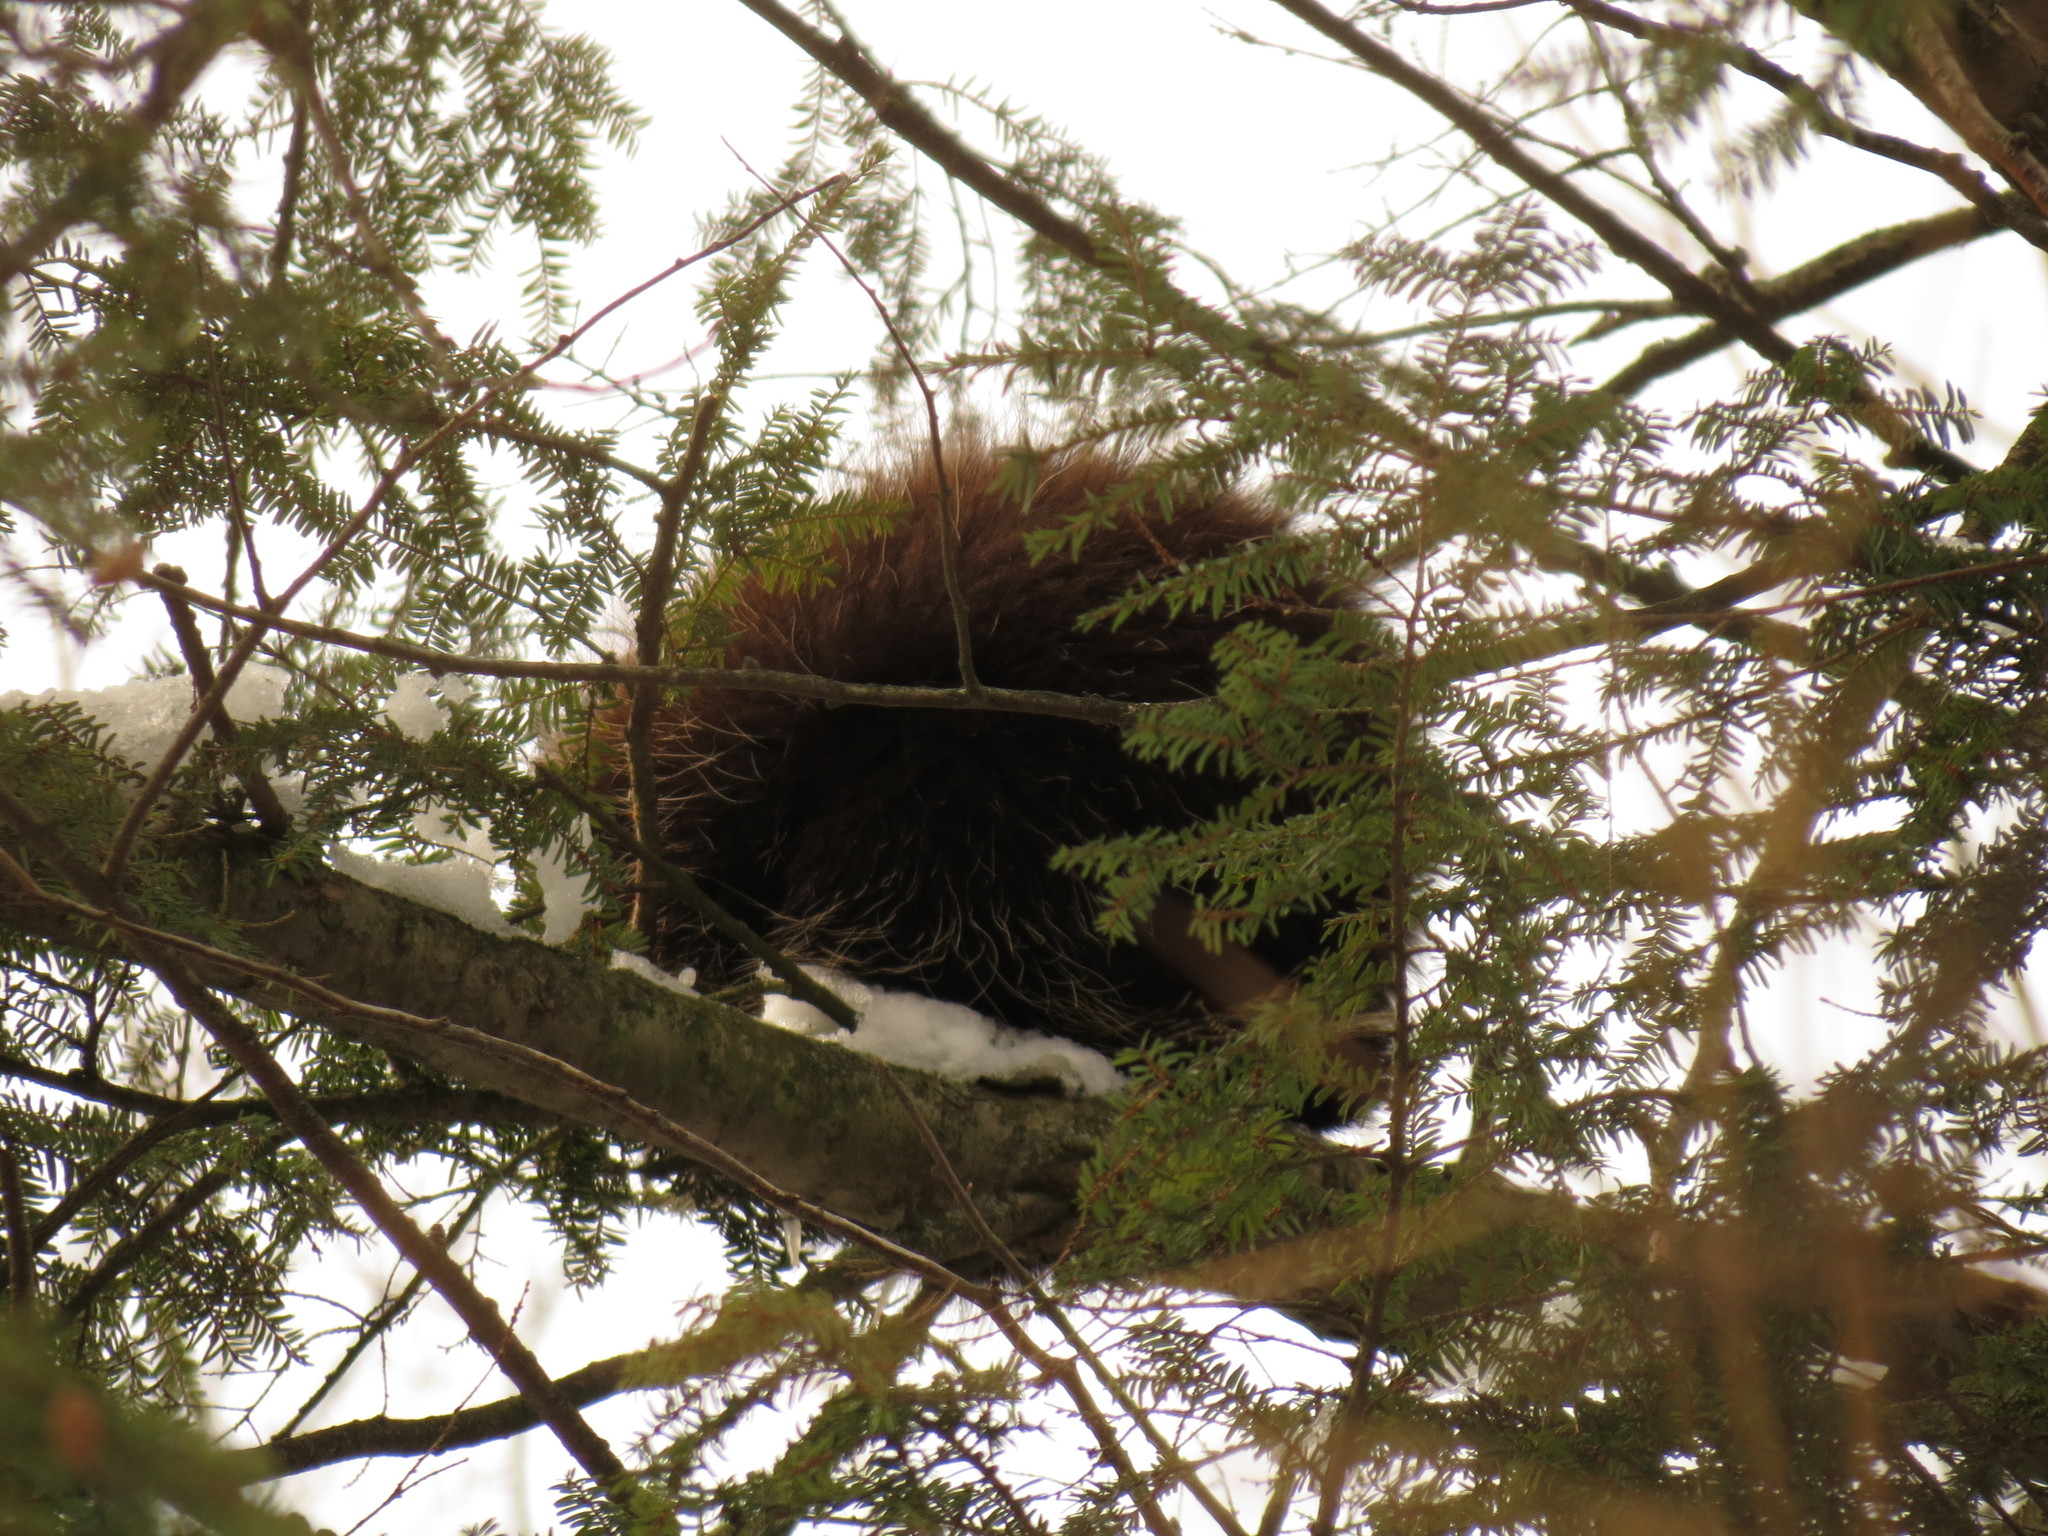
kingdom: Animalia
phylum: Chordata
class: Mammalia
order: Rodentia
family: Erethizontidae
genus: Erethizon
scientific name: Erethizon dorsatus
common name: North american porcupine
